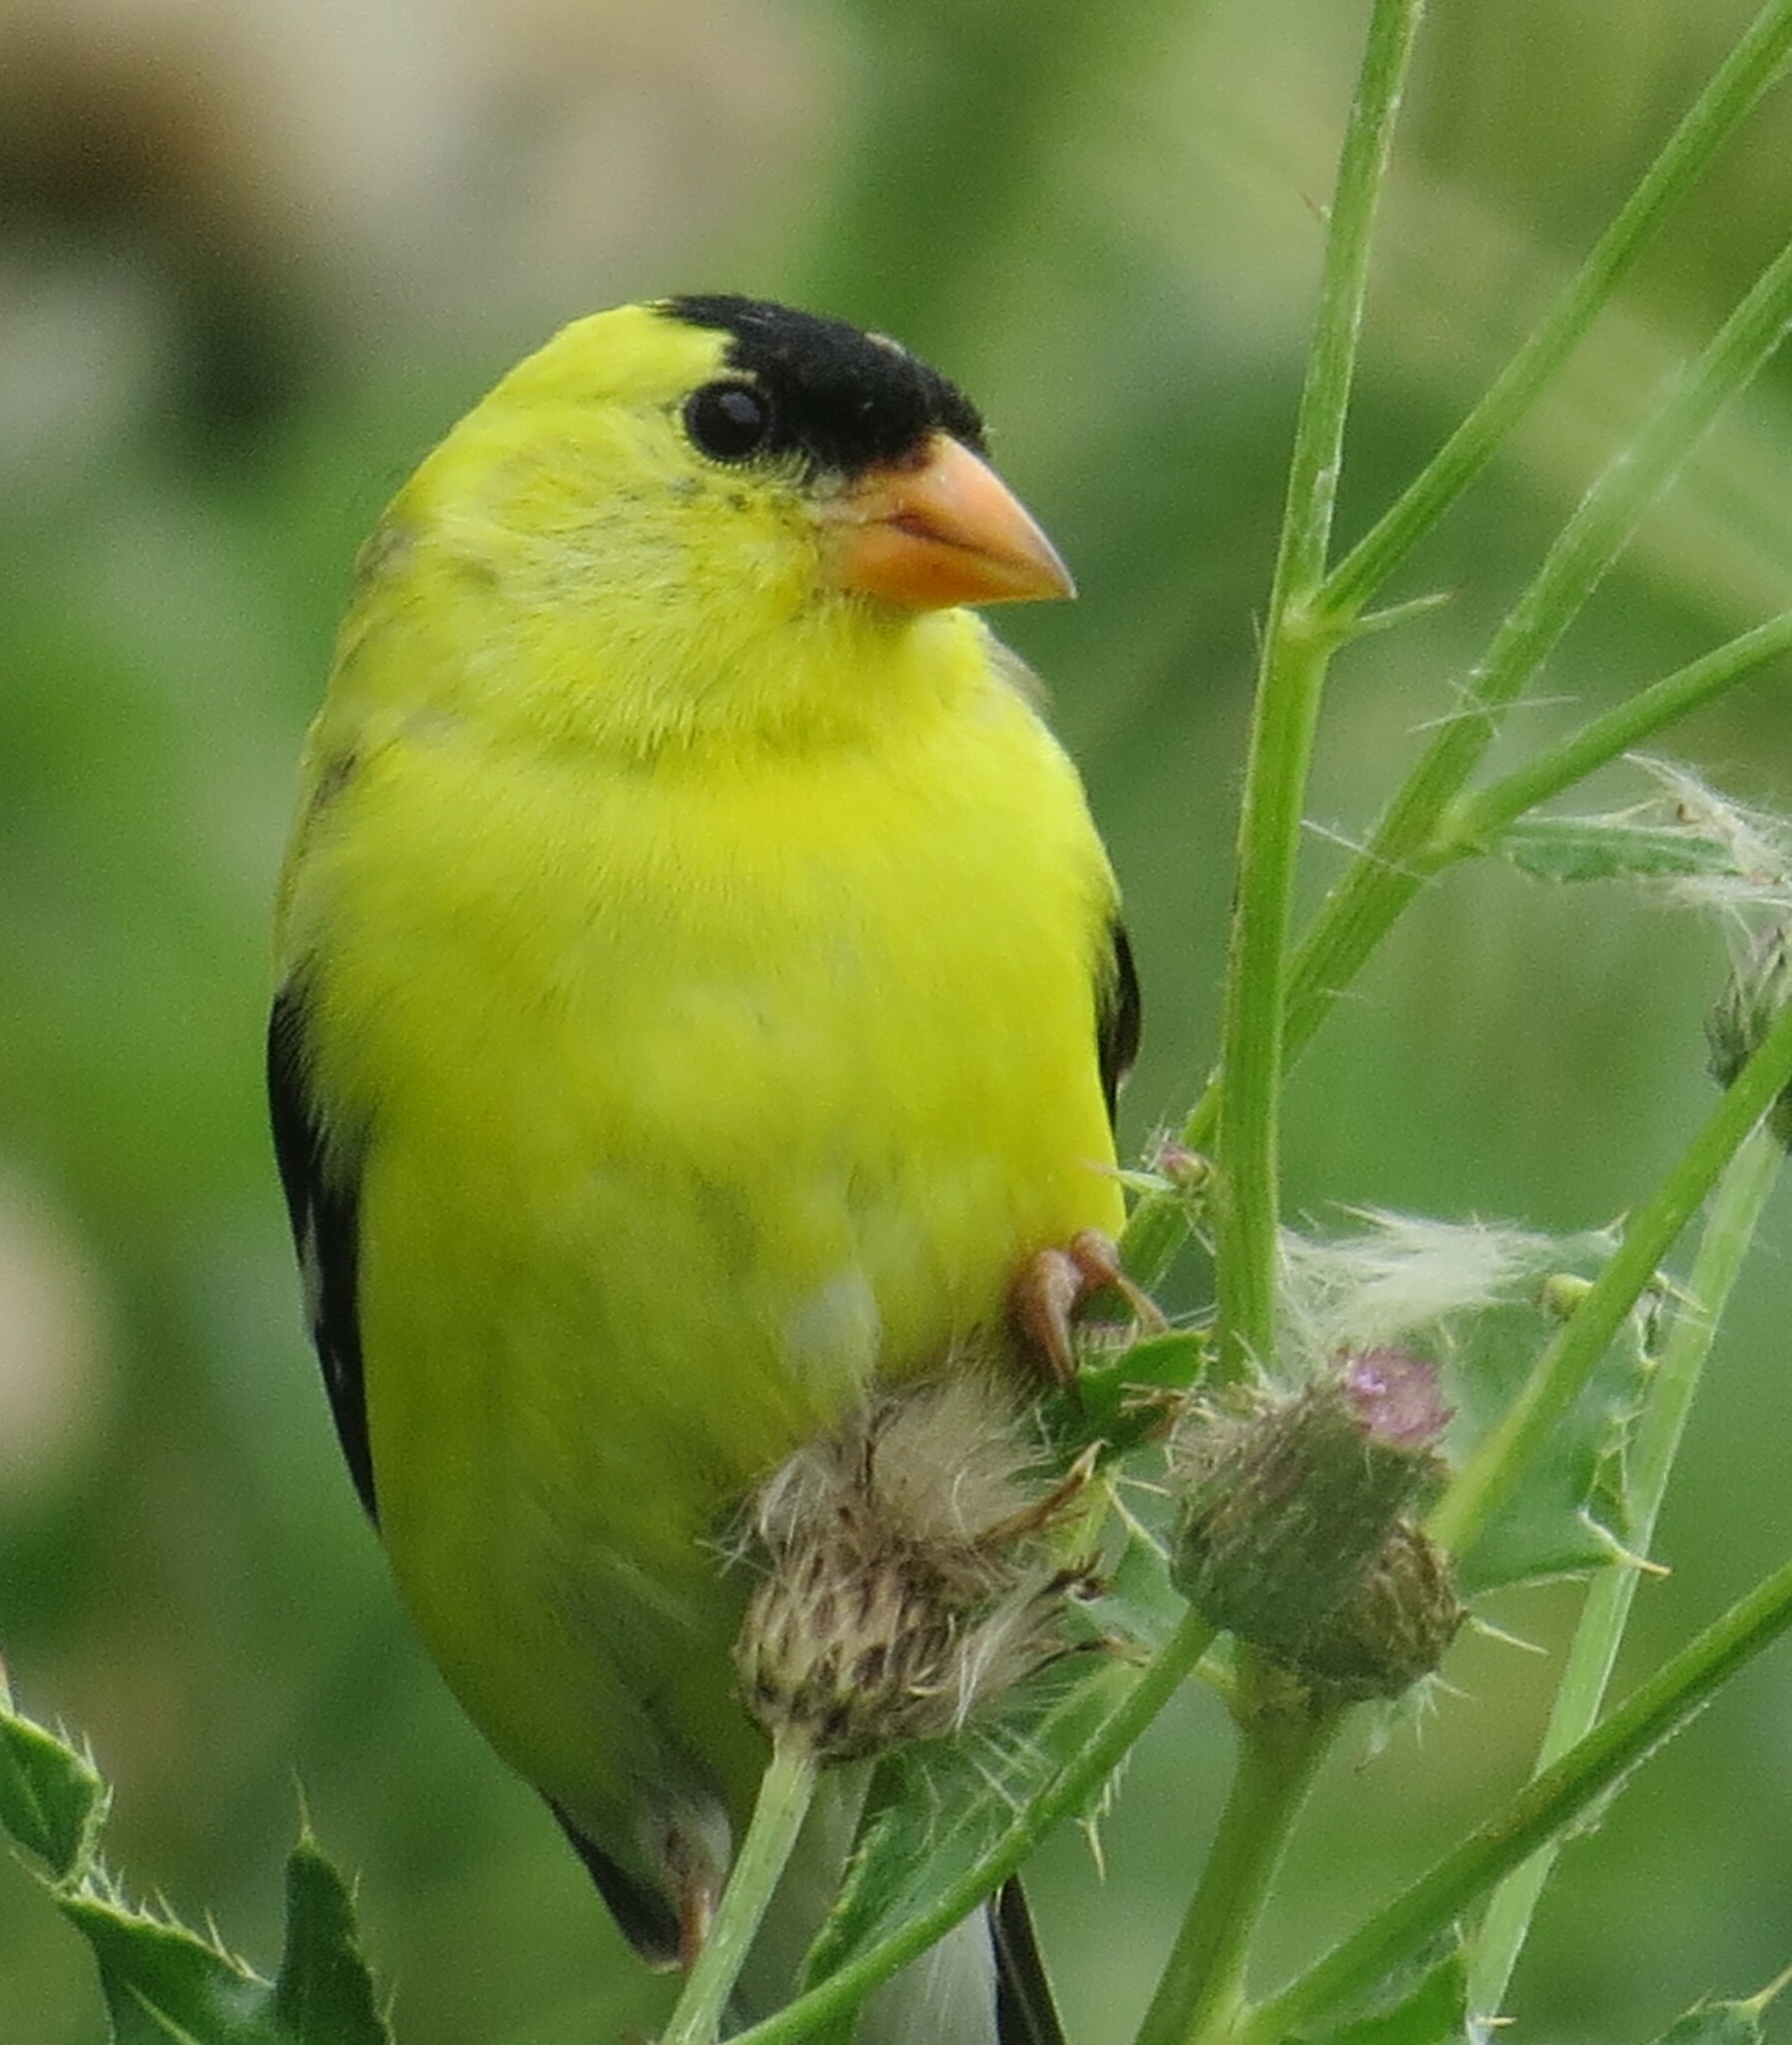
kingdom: Animalia
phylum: Chordata
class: Aves
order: Passeriformes
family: Fringillidae
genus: Spinus
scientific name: Spinus tristis
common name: American goldfinch
